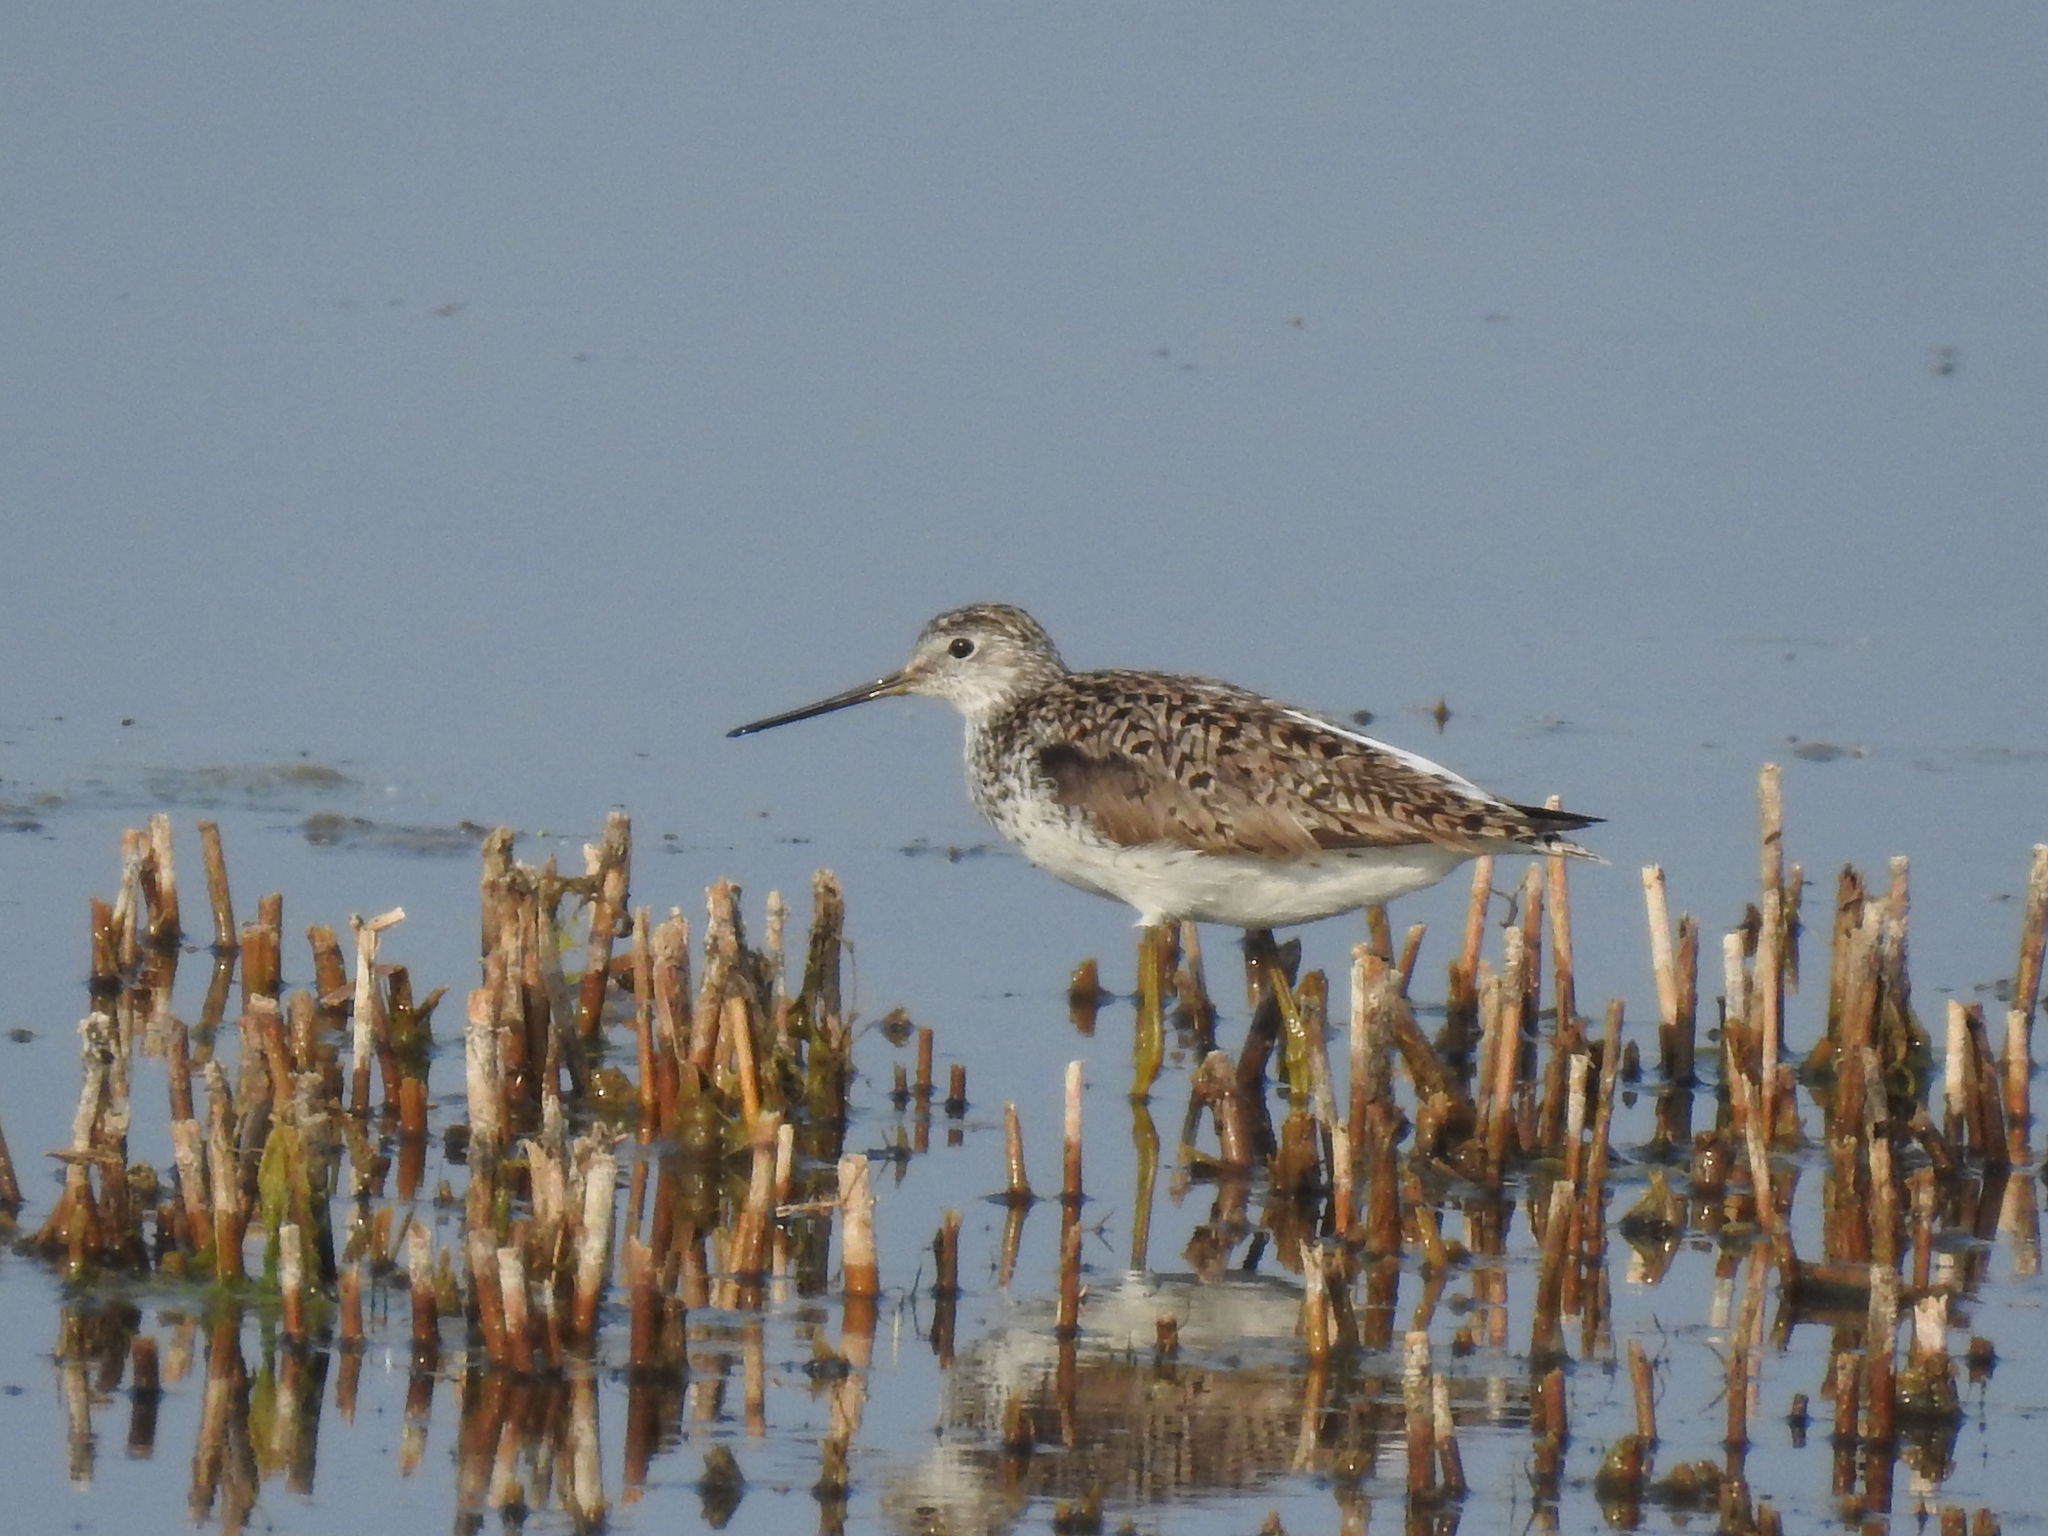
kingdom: Animalia
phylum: Chordata
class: Aves
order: Charadriiformes
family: Scolopacidae
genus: Tringa
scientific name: Tringa stagnatilis
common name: Marsh sandpiper
